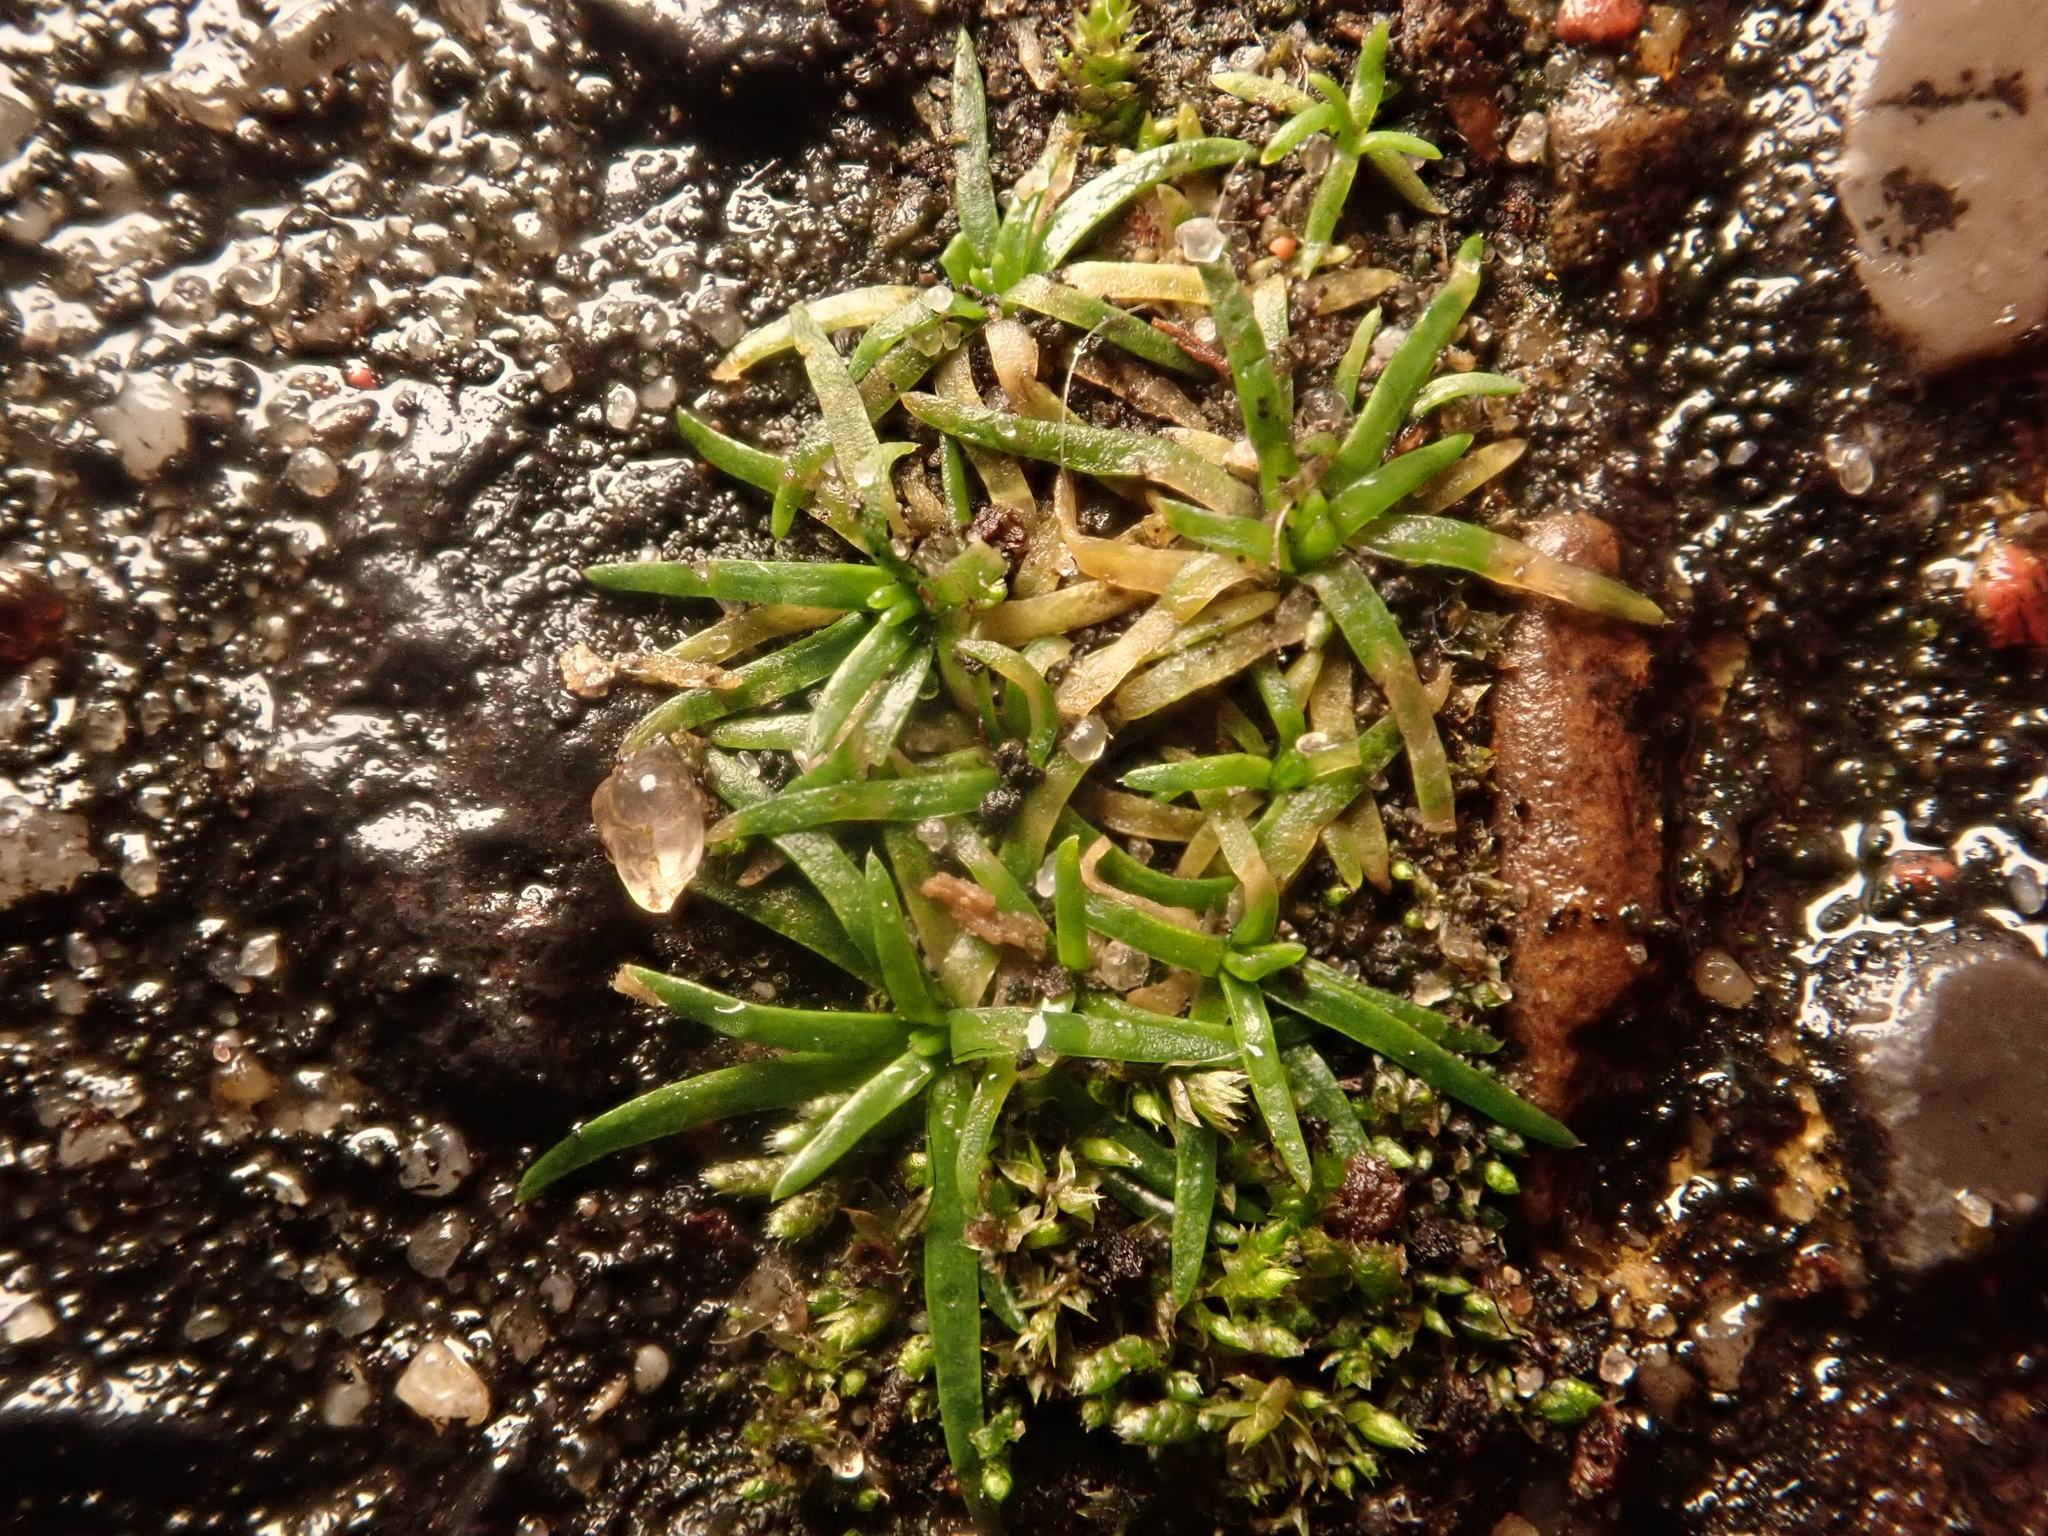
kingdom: Plantae
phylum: Tracheophyta
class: Magnoliopsida
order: Caryophyllales
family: Caryophyllaceae
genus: Sagina
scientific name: Sagina procumbens
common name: Procumbent pearlwort
